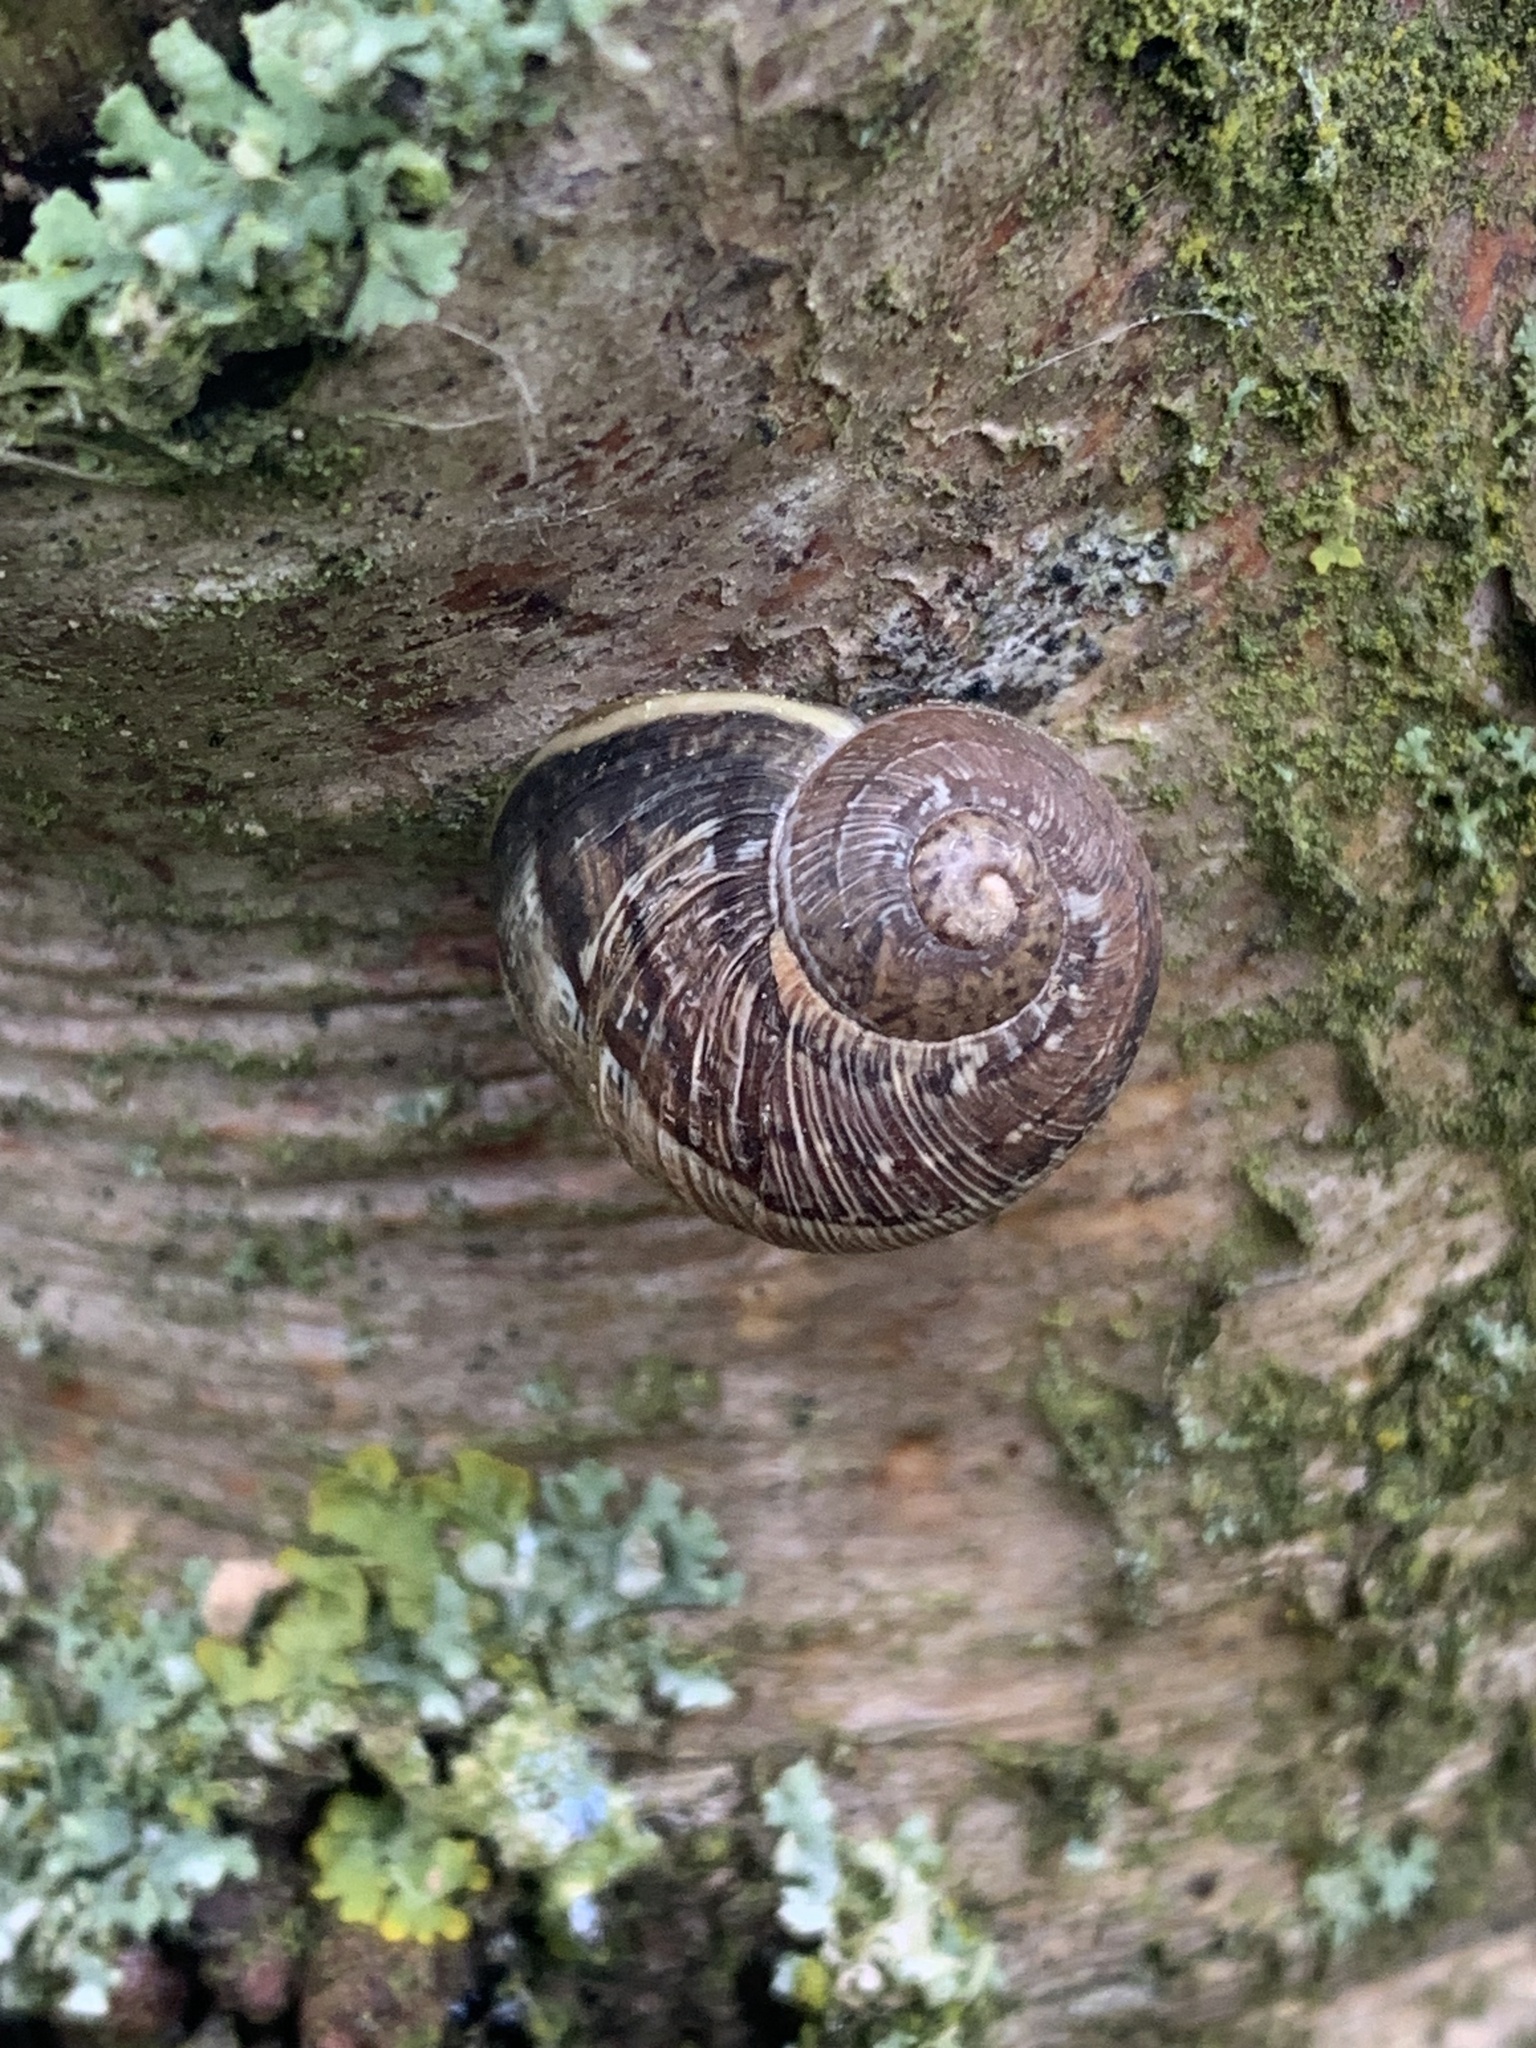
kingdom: Animalia
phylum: Mollusca
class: Gastropoda
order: Stylommatophora
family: Helicidae
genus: Cornu
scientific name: Cornu aspersum
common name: Brown garden snail
